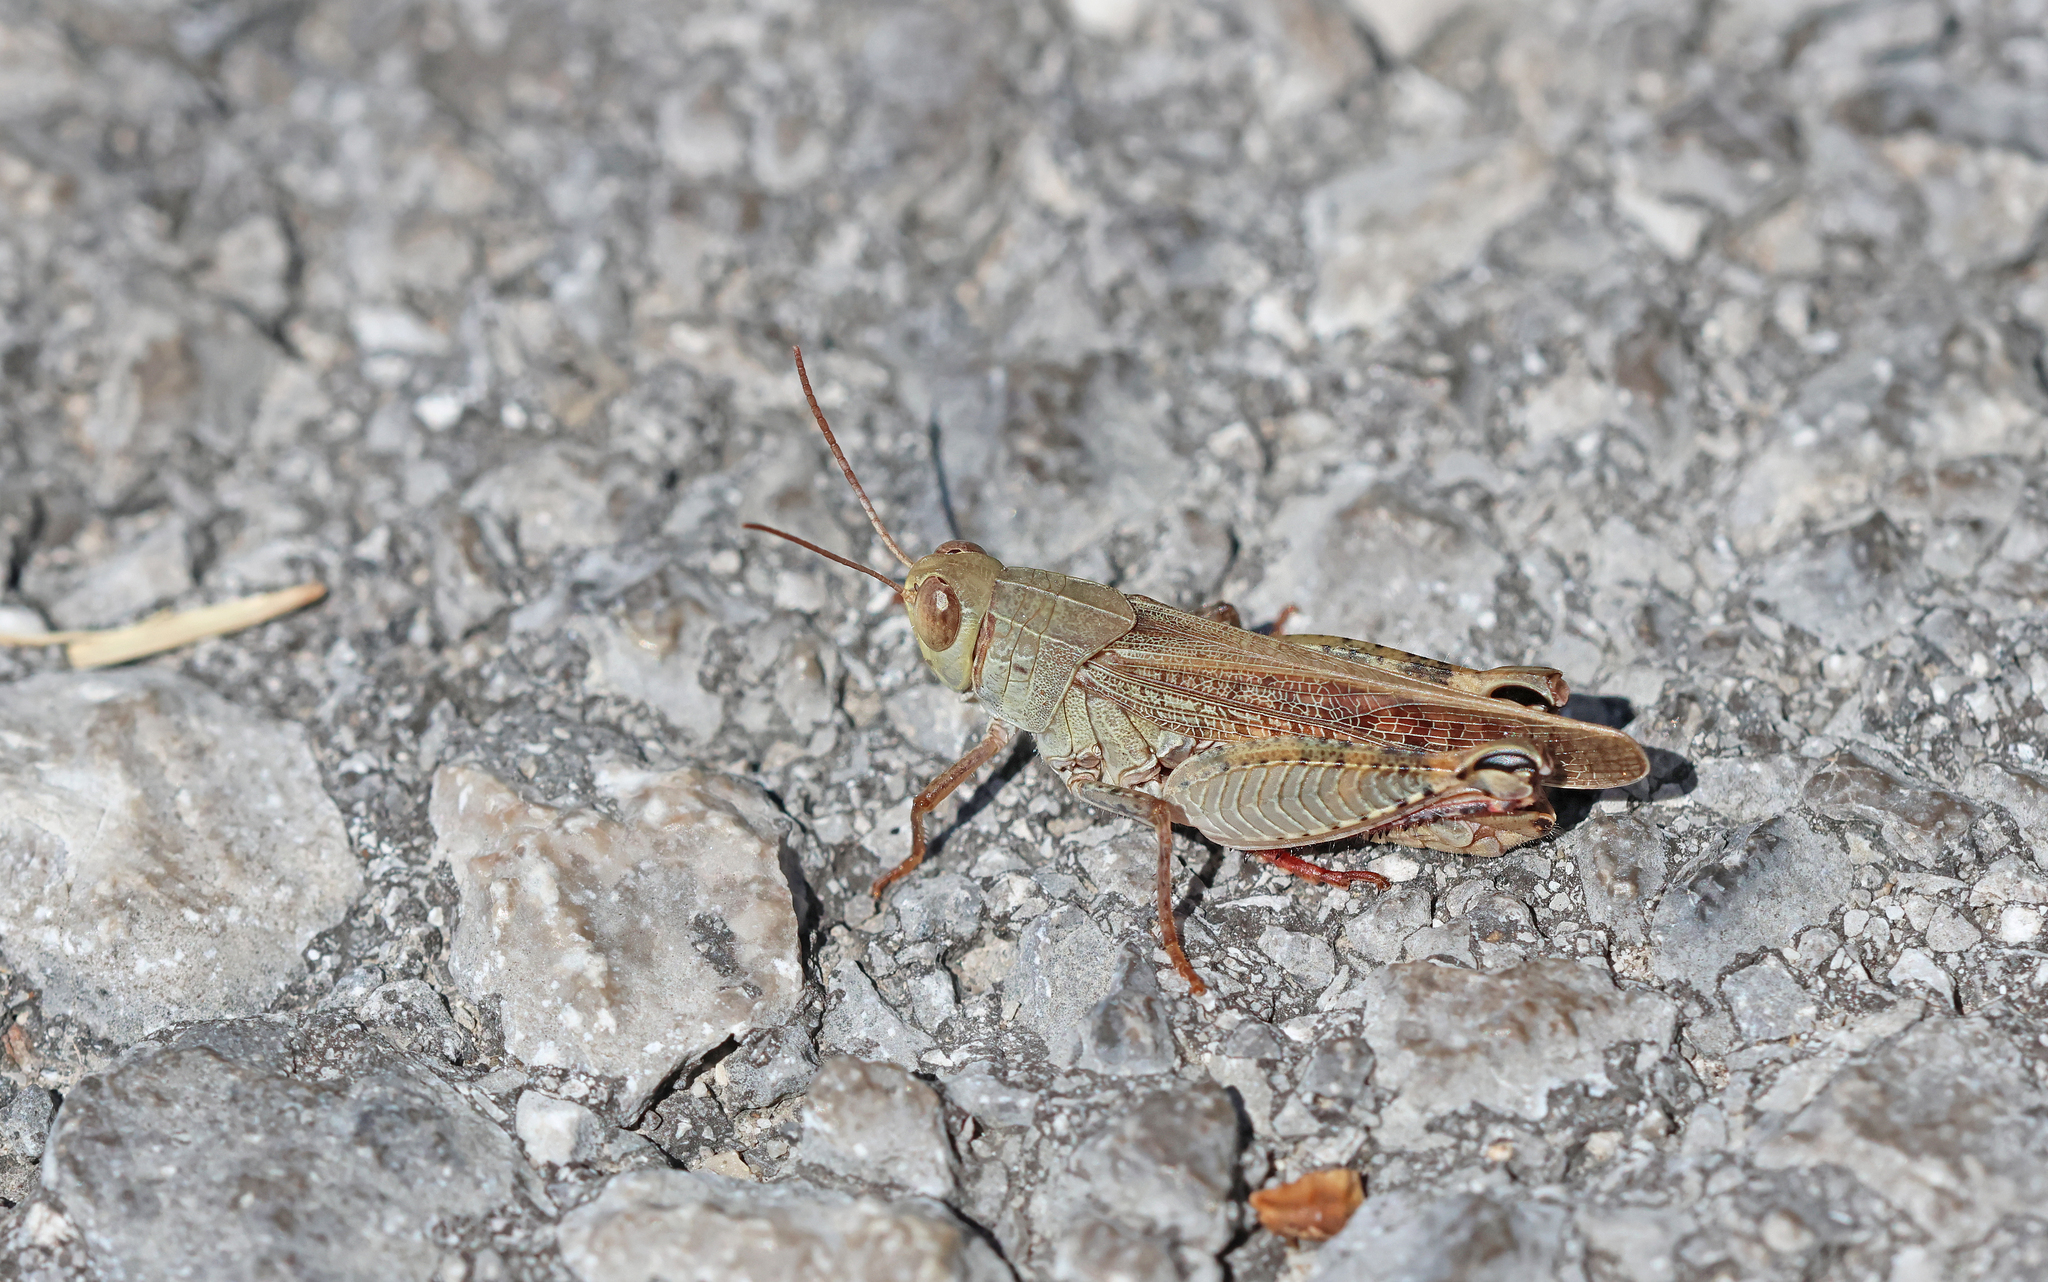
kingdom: Animalia
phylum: Arthropoda
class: Insecta
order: Orthoptera
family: Acrididae
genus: Calliptamus
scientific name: Calliptamus italicus
